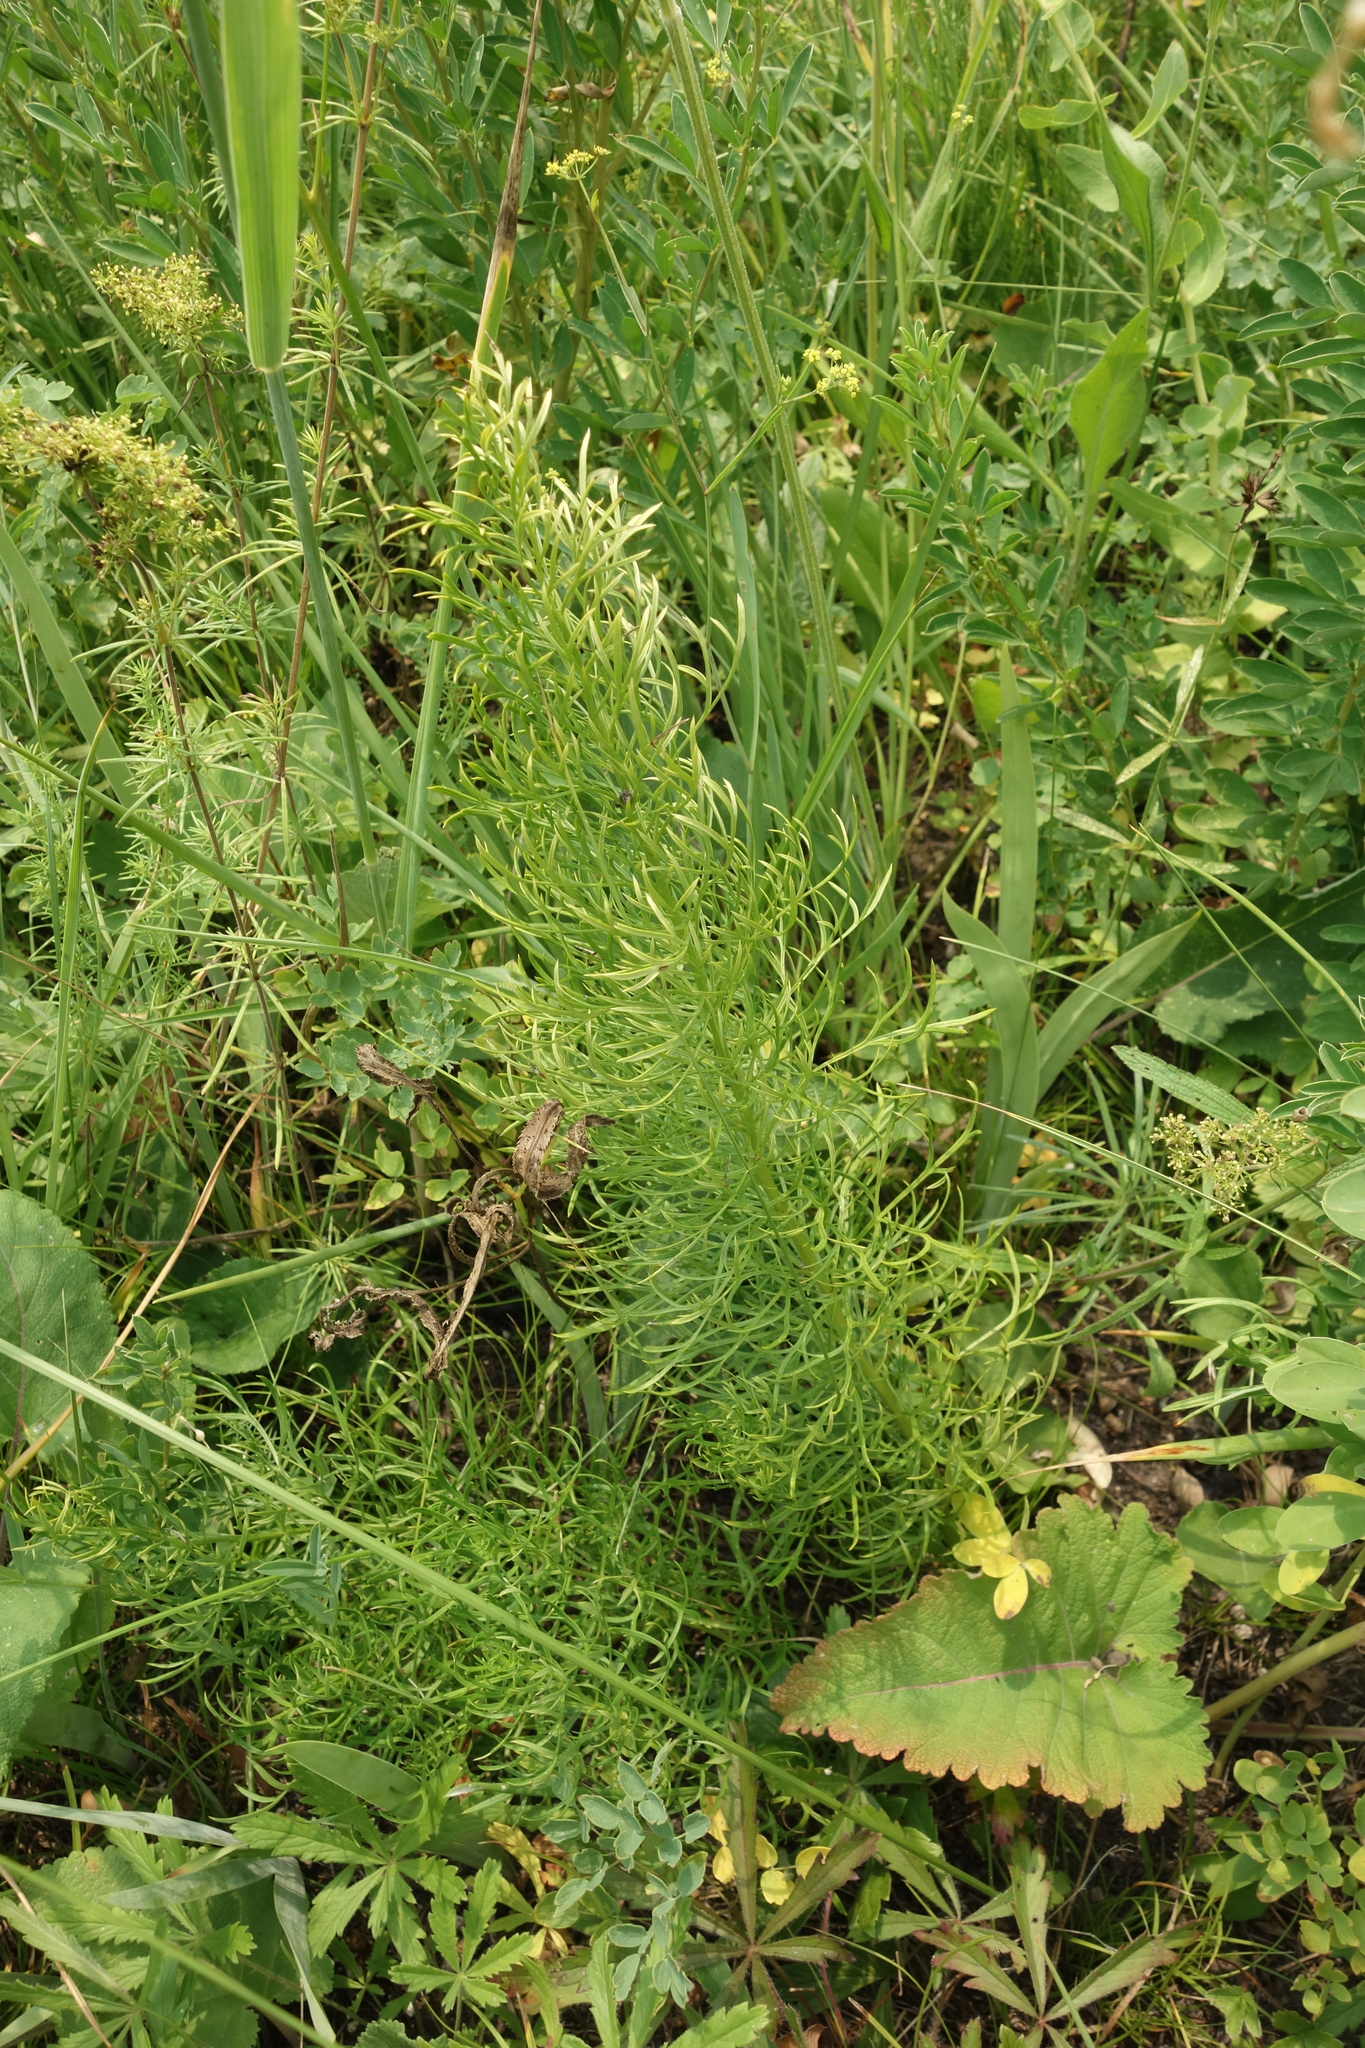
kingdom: Plantae
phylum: Tracheophyta
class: Magnoliopsida
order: Ranunculales
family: Ranunculaceae
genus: Adonis
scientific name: Adonis vernalis
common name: Yellow pheasants-eye
